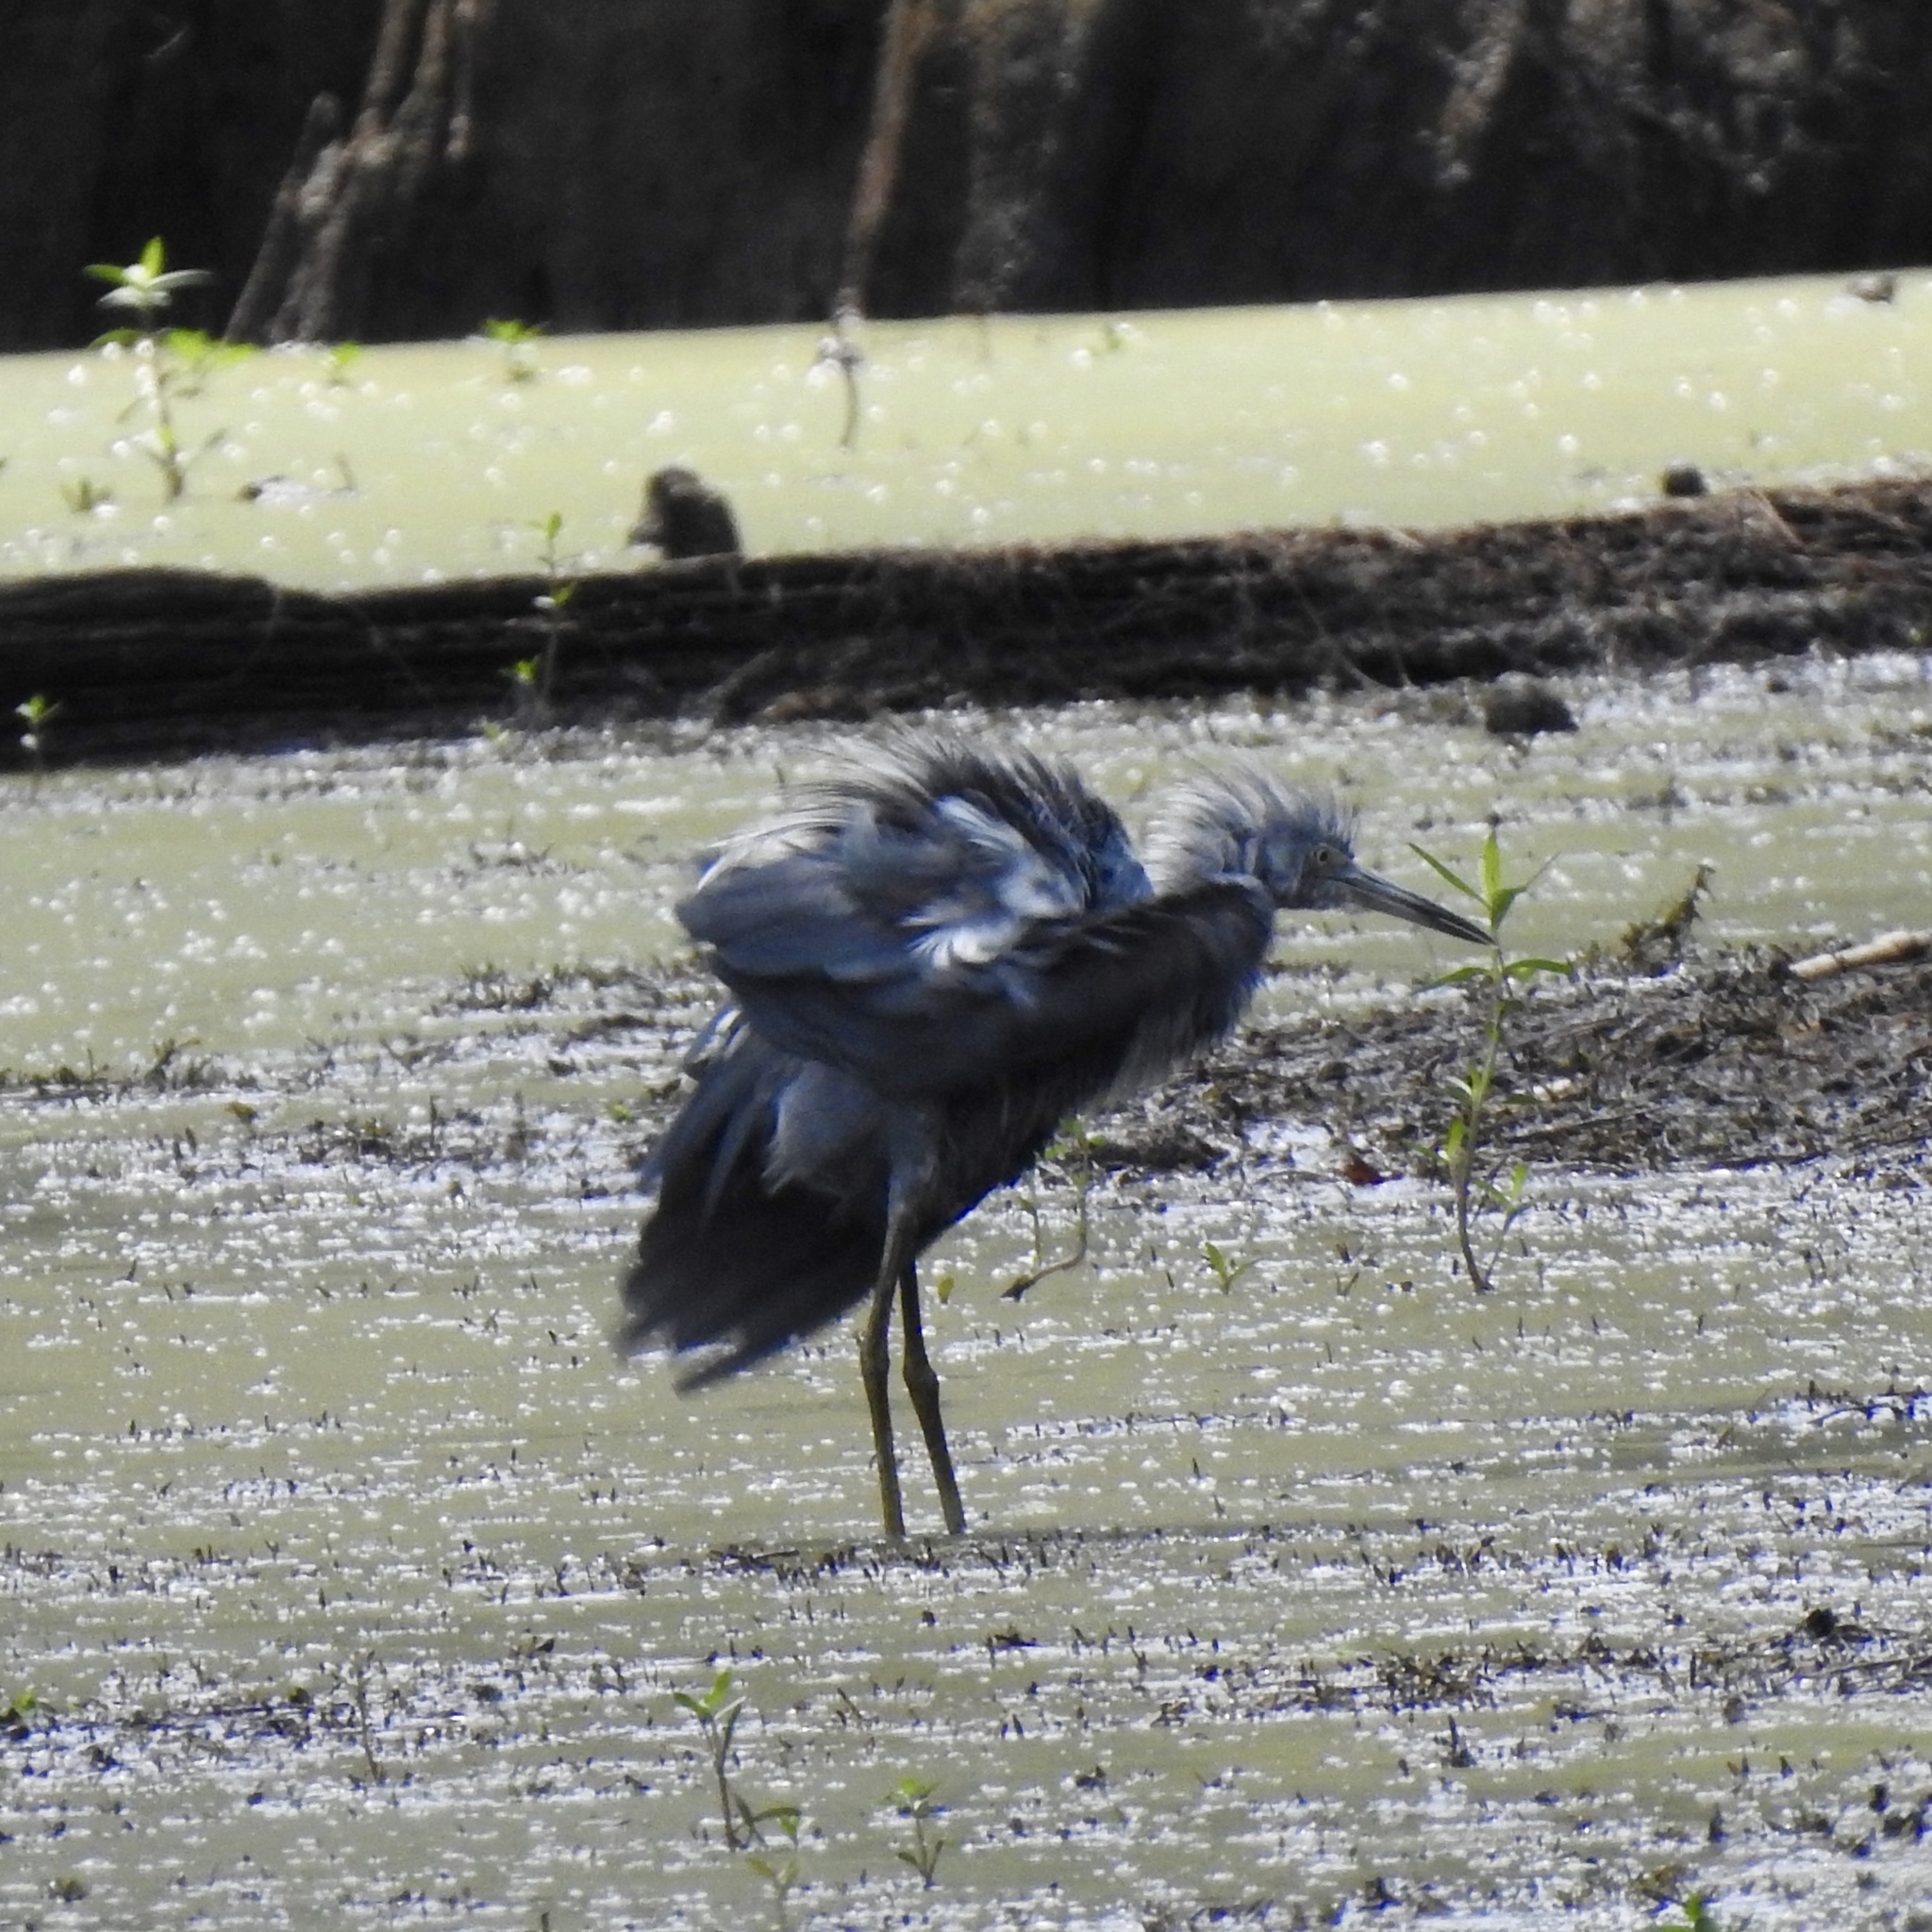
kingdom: Animalia
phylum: Chordata
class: Aves
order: Pelecaniformes
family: Ardeidae
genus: Egretta
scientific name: Egretta caerulea
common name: Little blue heron
